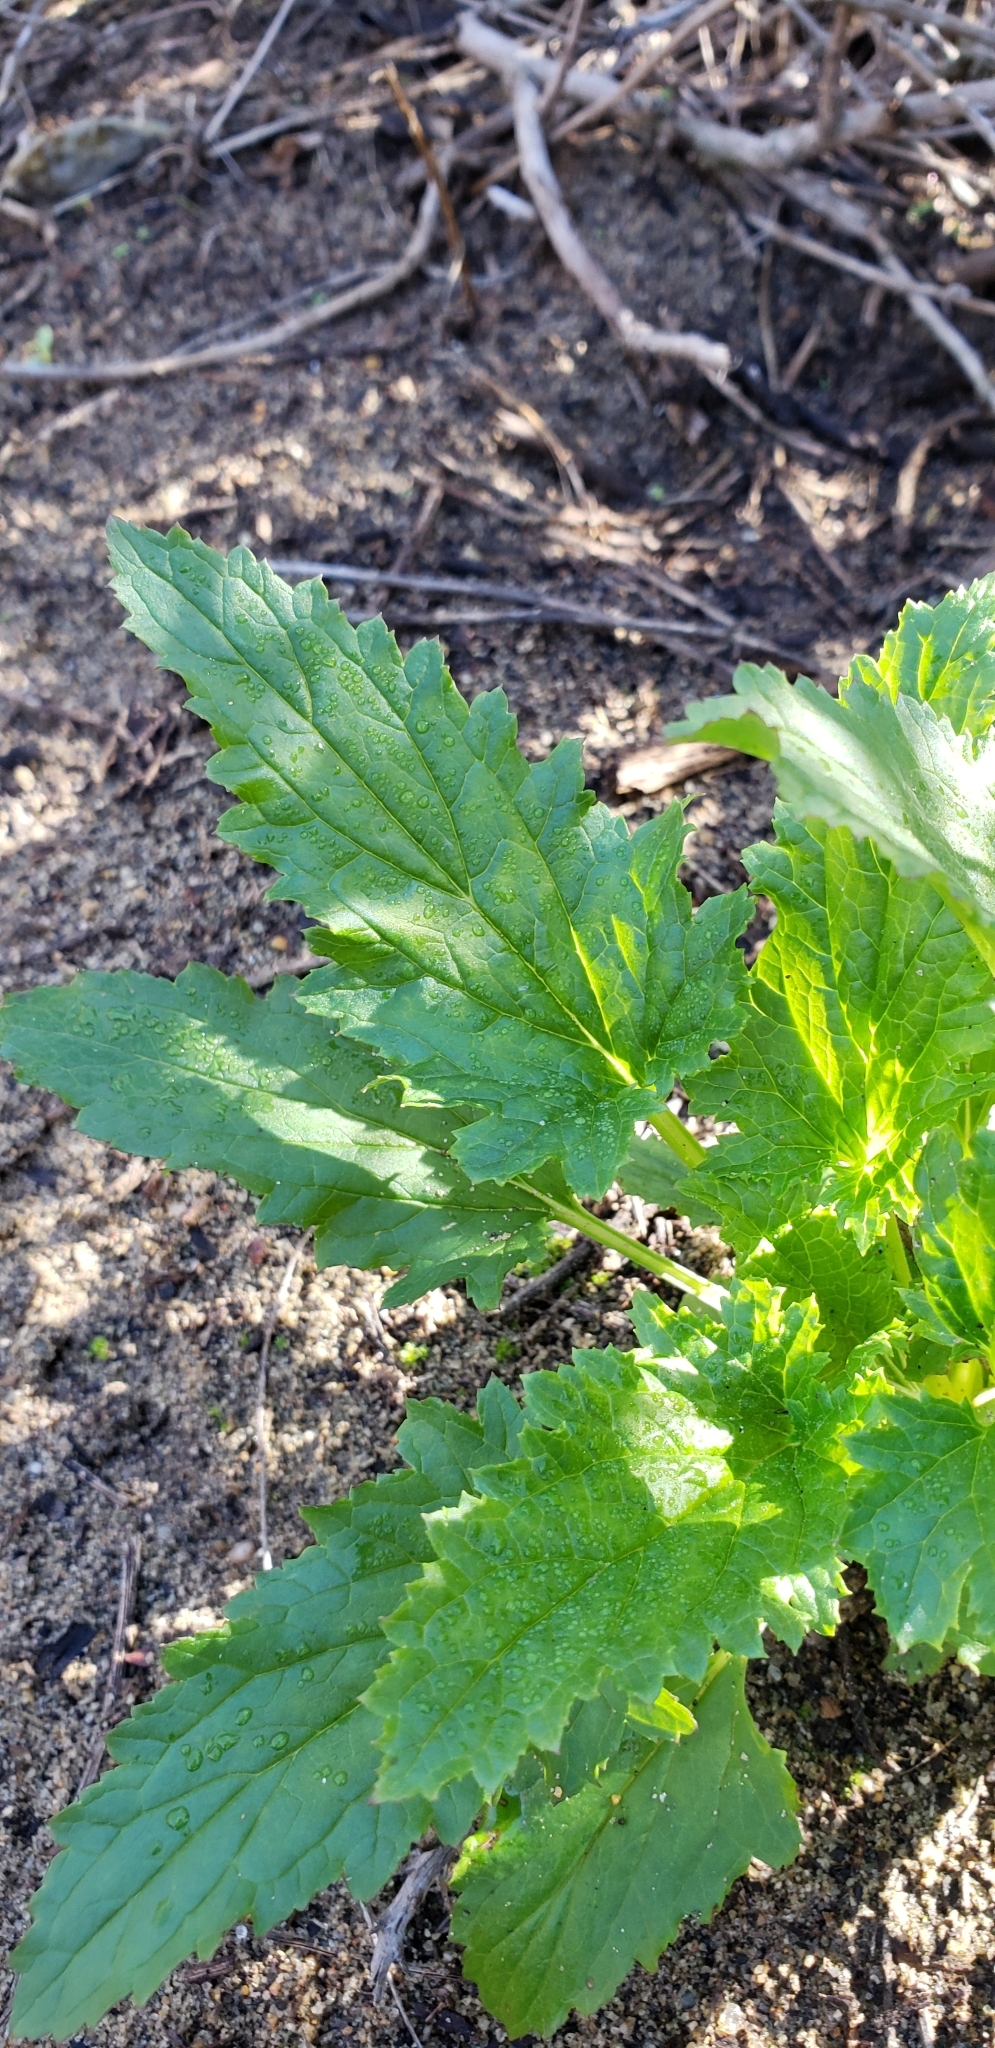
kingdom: Plantae
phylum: Tracheophyta
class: Magnoliopsida
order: Lamiales
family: Scrophulariaceae
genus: Scrophularia
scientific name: Scrophularia californica
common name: California figwort
